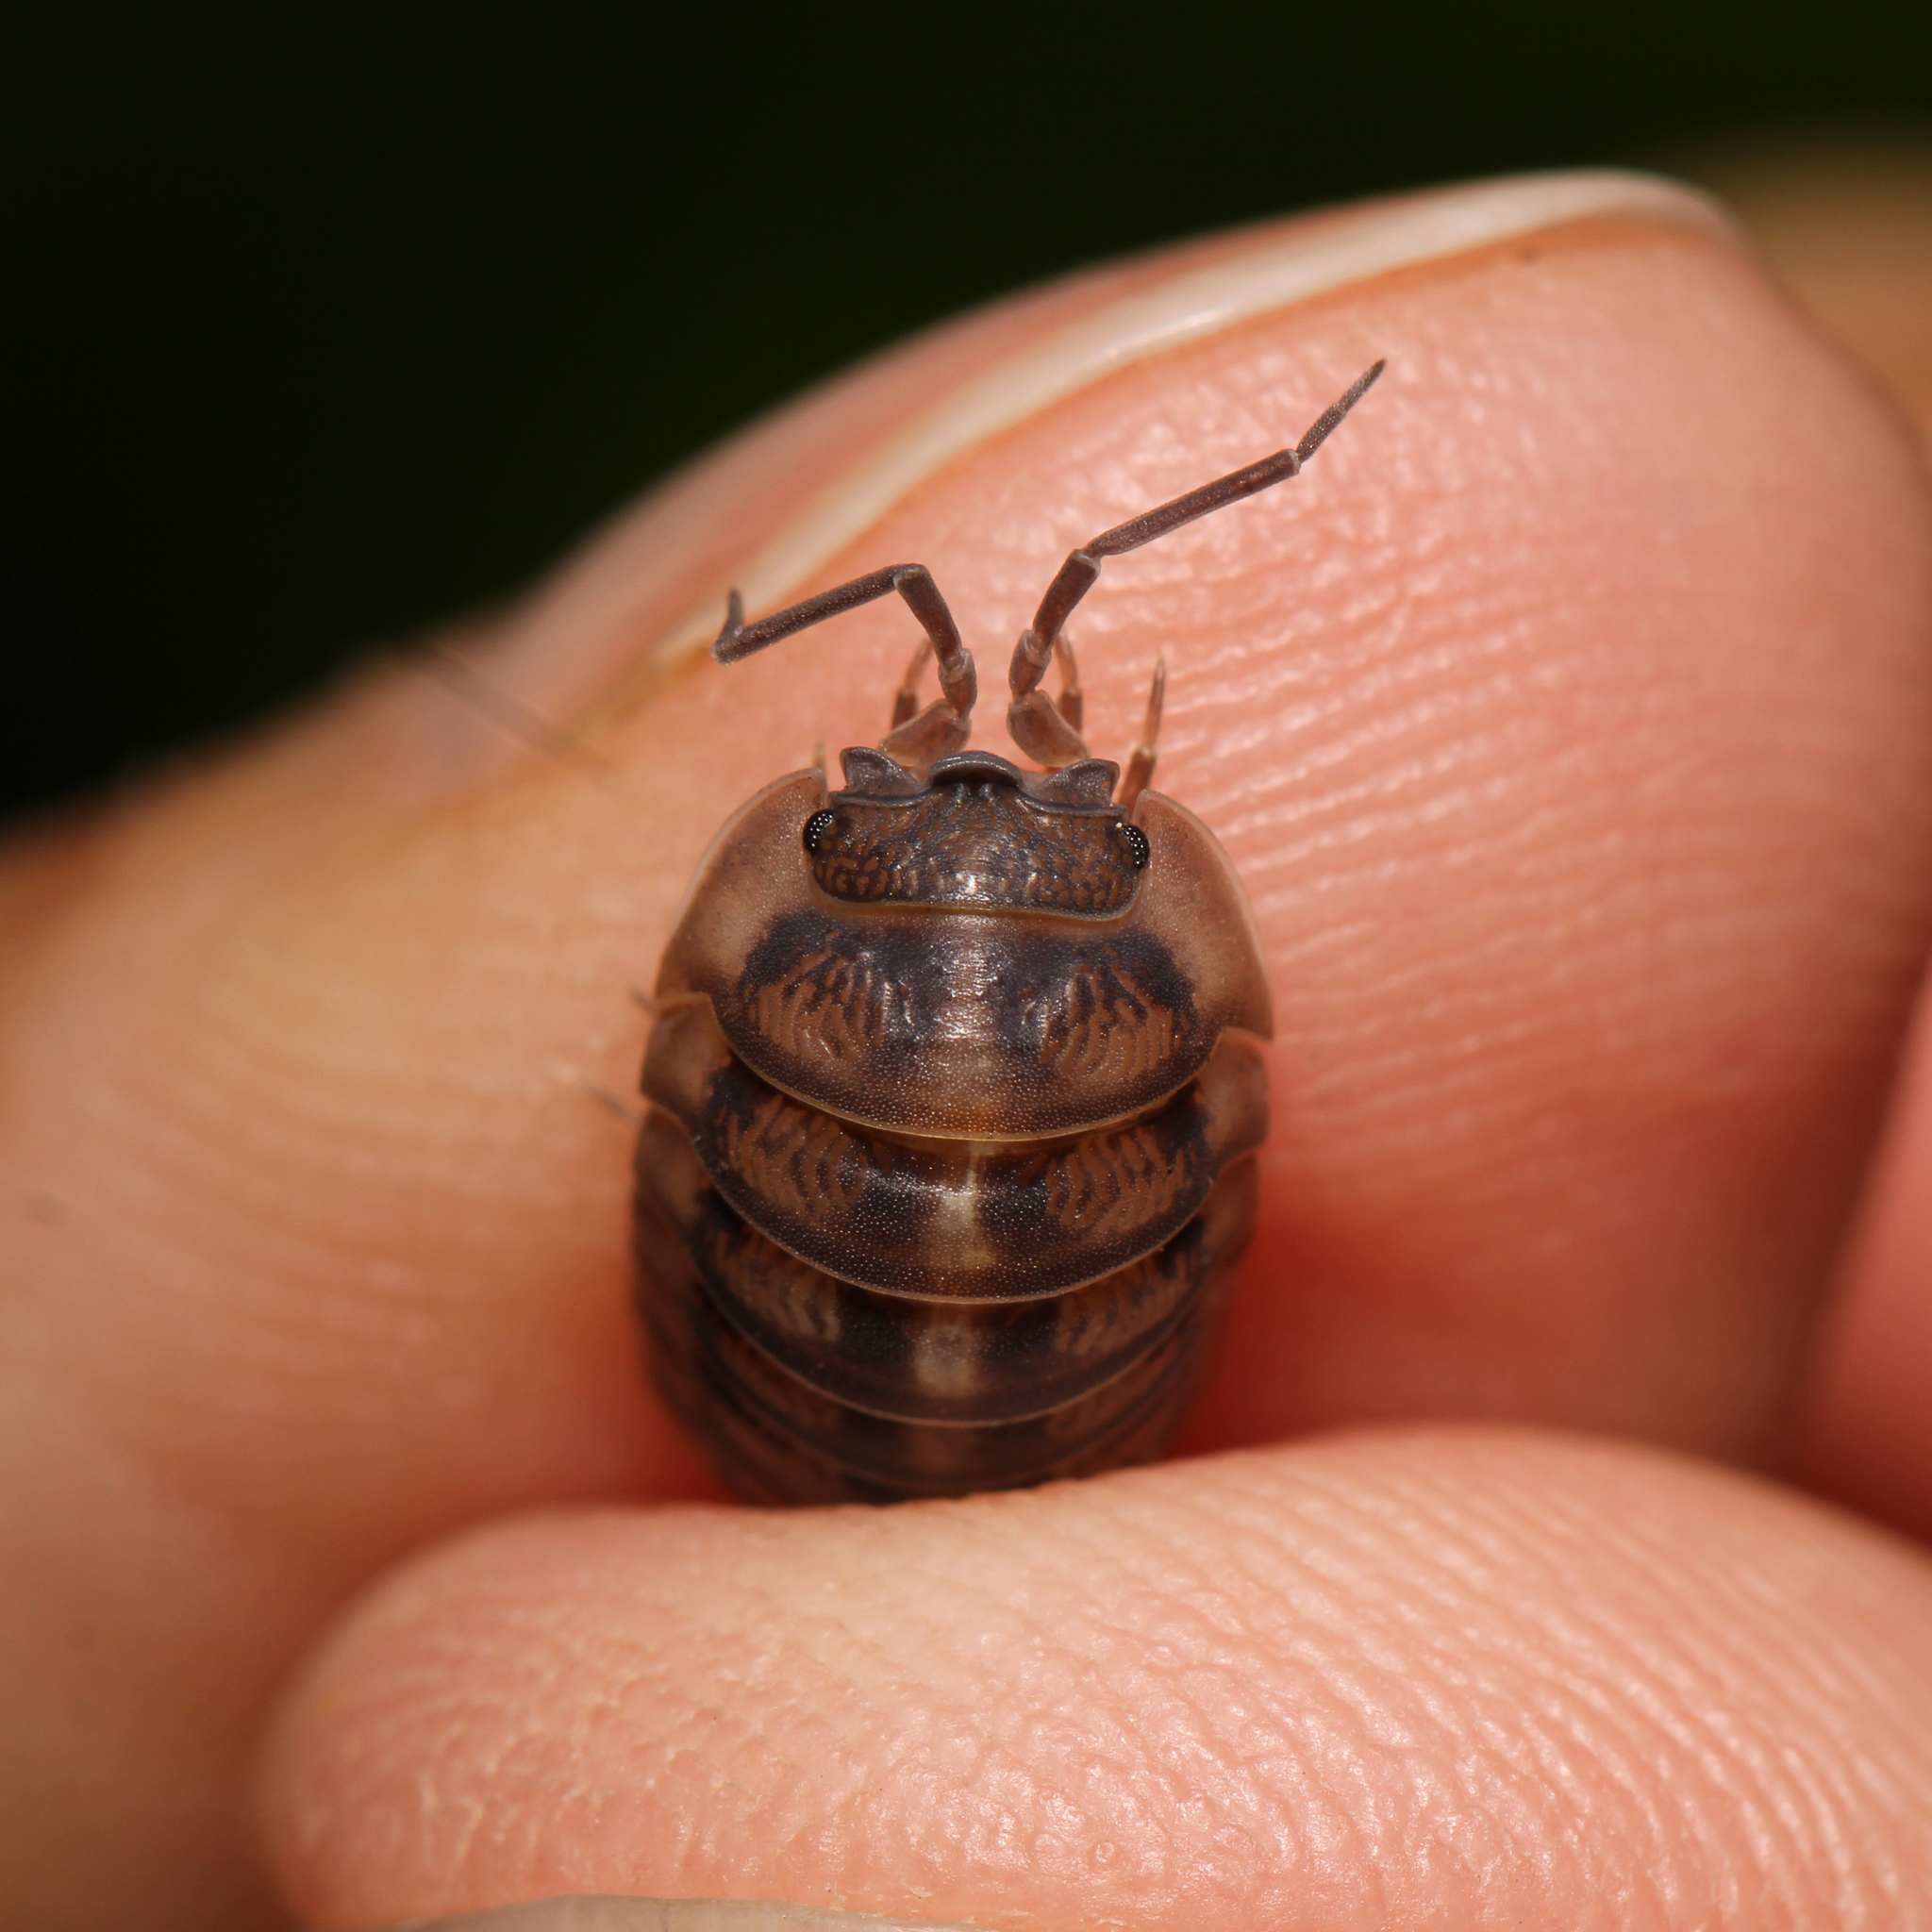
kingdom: Animalia
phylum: Arthropoda
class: Malacostraca
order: Isopoda
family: Armadillidiidae
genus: Armadillidium
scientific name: Armadillidium nasatum
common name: Isopod
